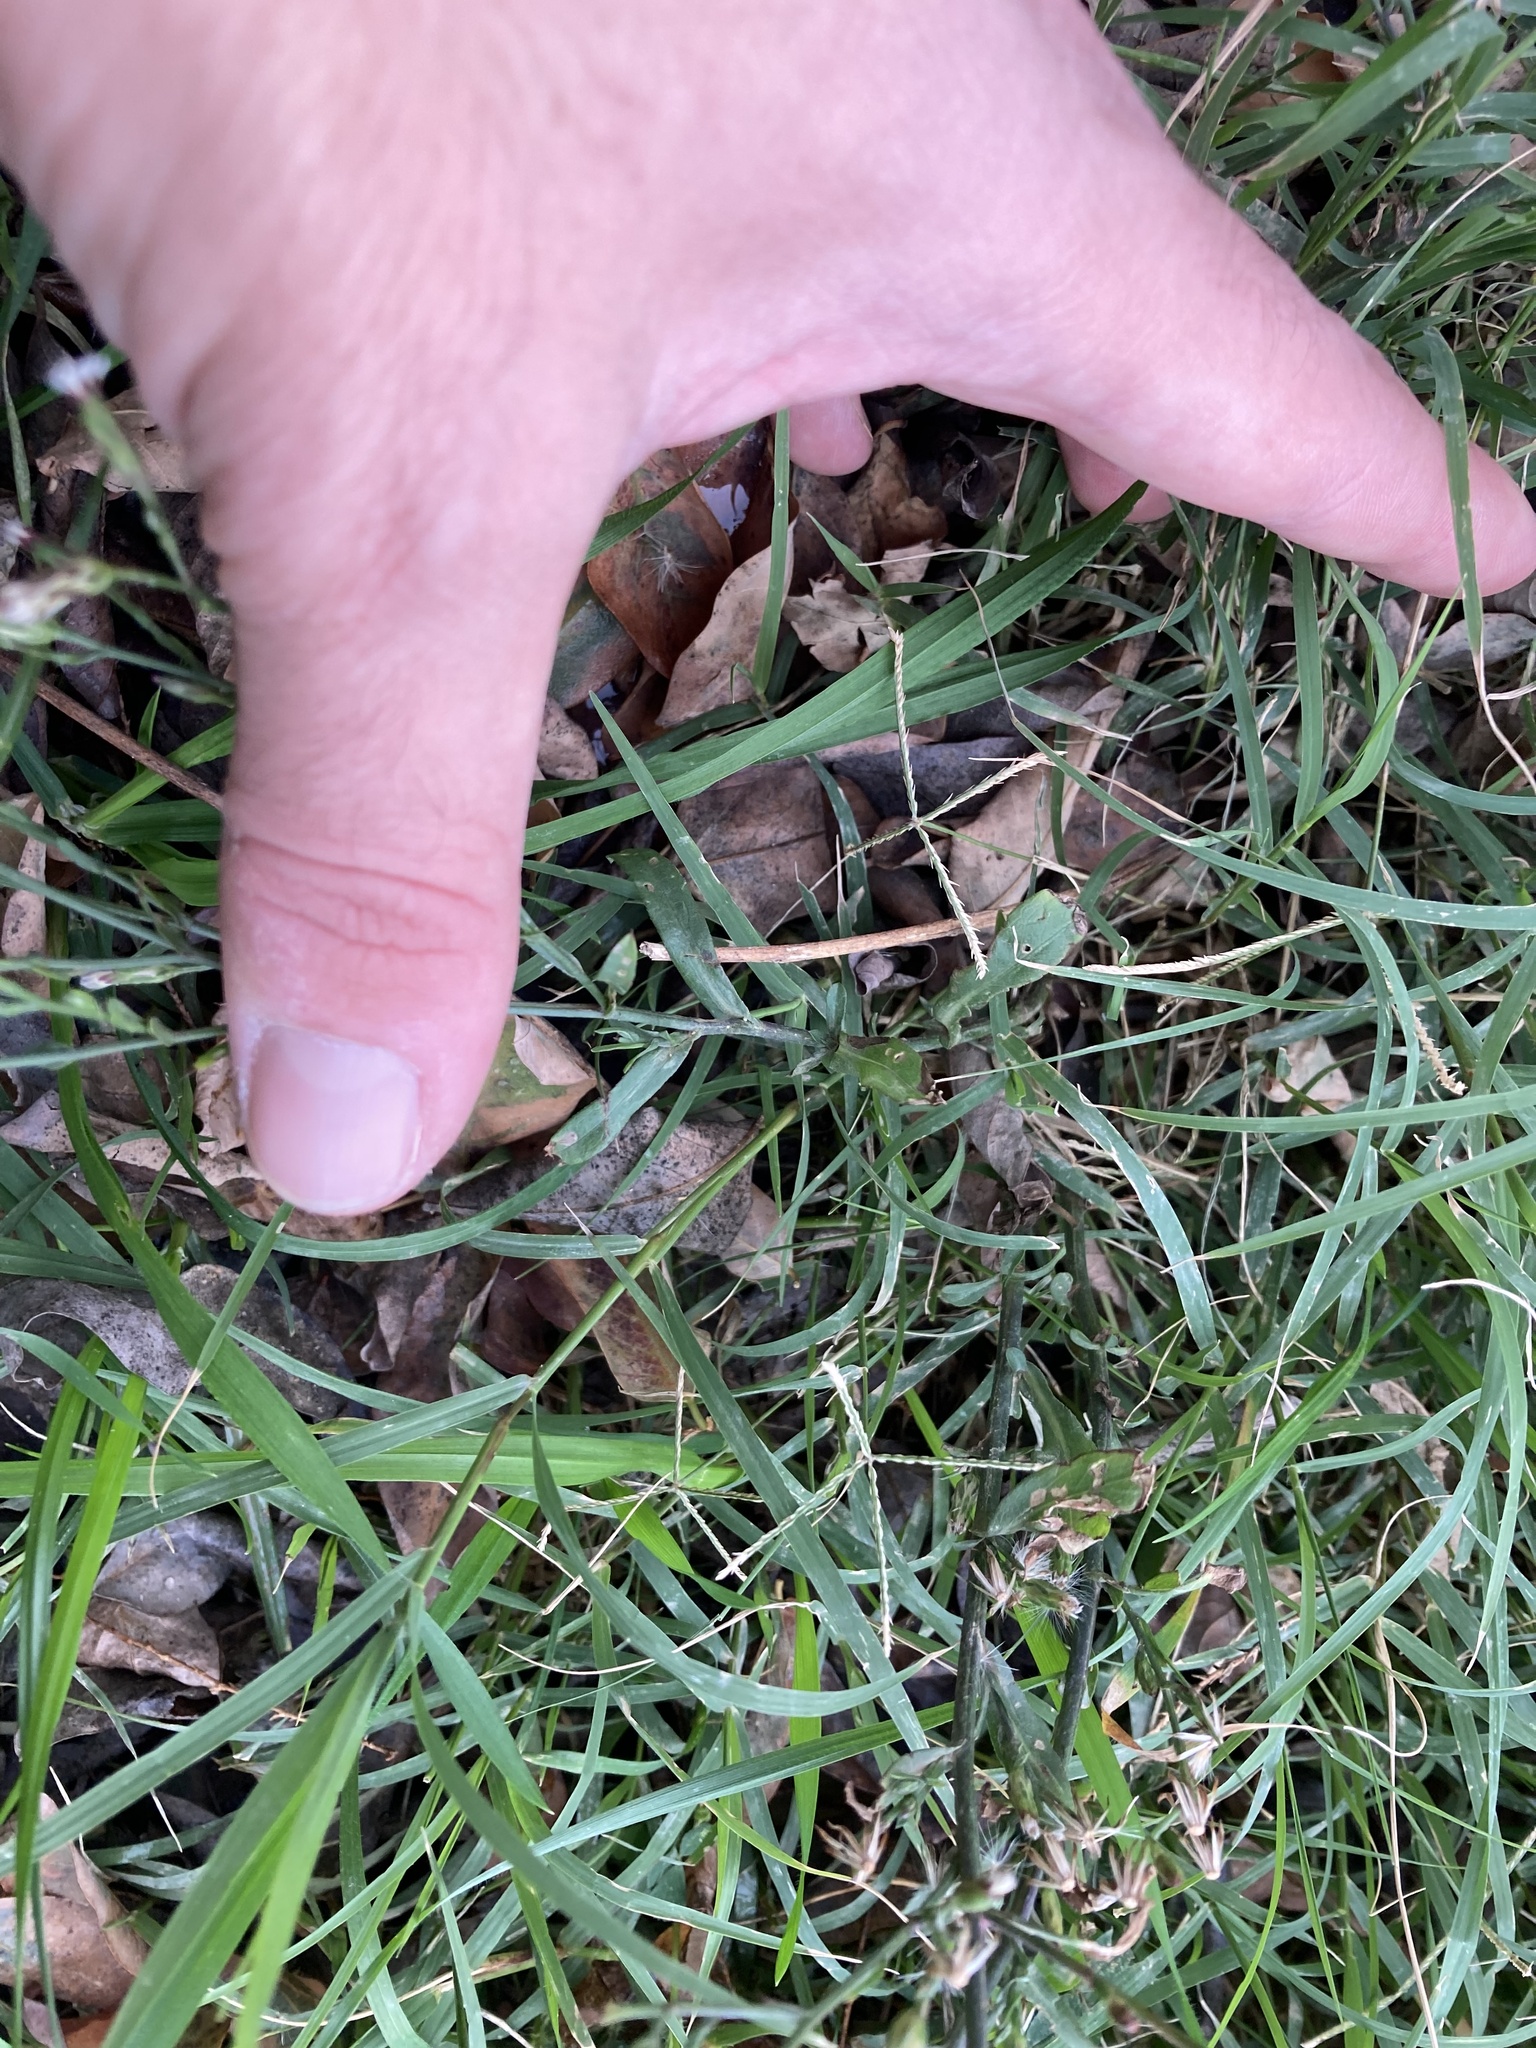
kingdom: Plantae
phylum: Tracheophyta
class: Magnoliopsida
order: Asterales
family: Asteraceae
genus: Symphyotrichum
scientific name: Symphyotrichum squamatum
